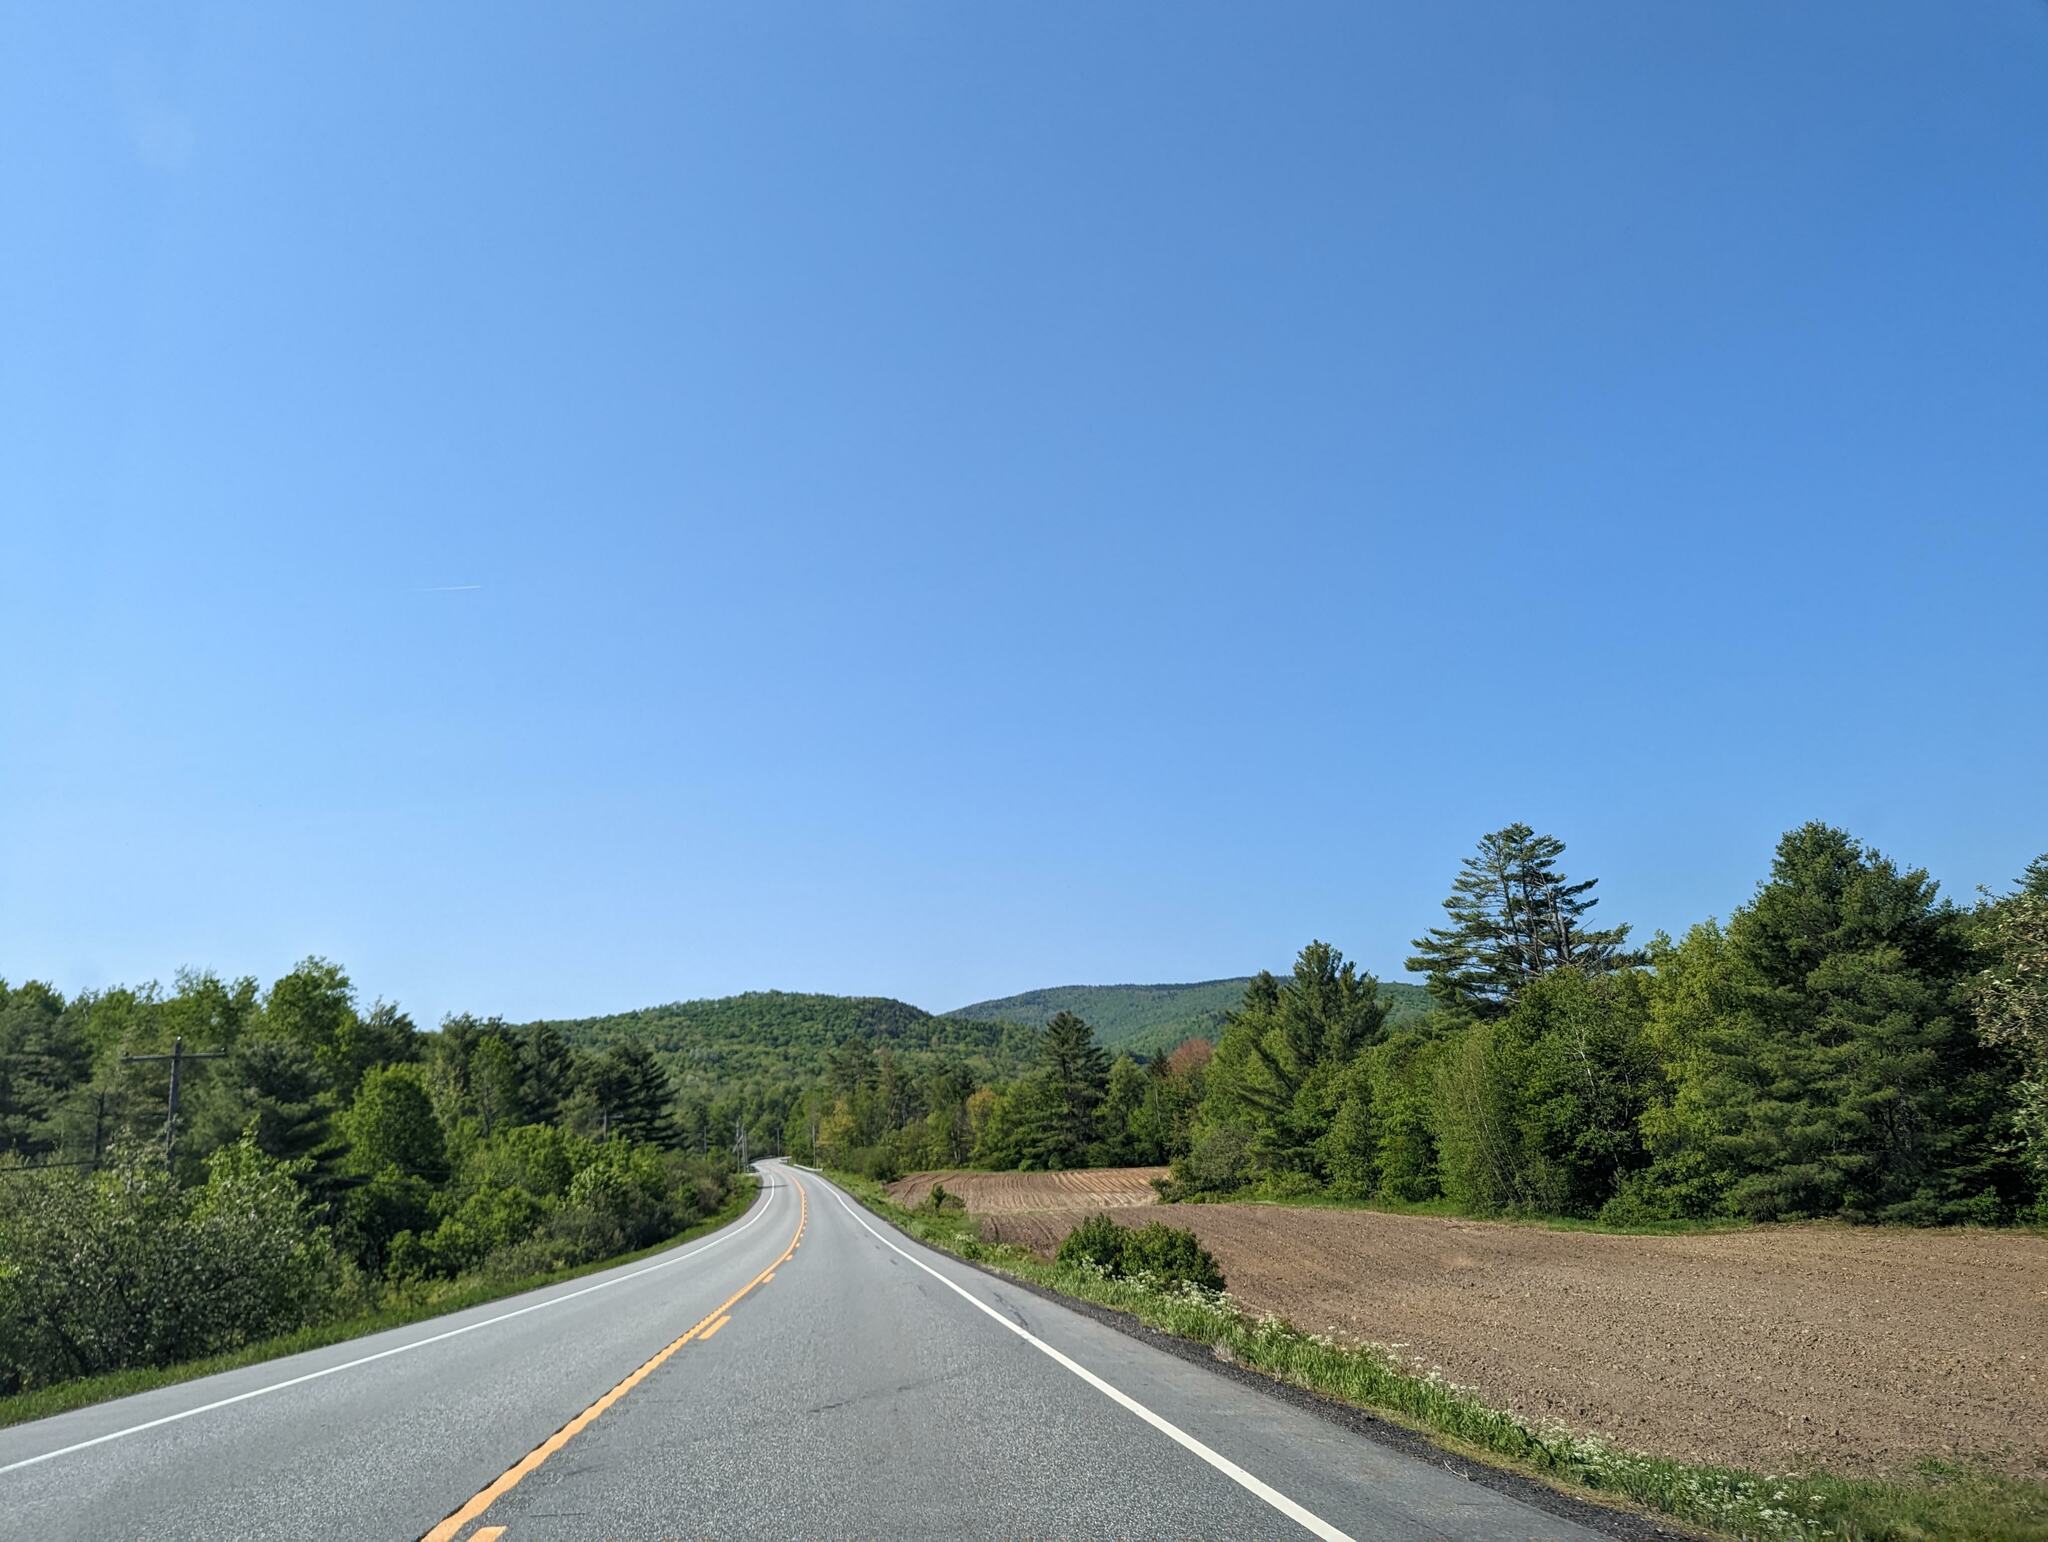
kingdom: Plantae
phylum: Tracheophyta
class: Pinopsida
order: Pinales
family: Pinaceae
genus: Pinus
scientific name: Pinus strobus
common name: Weymouth pine
